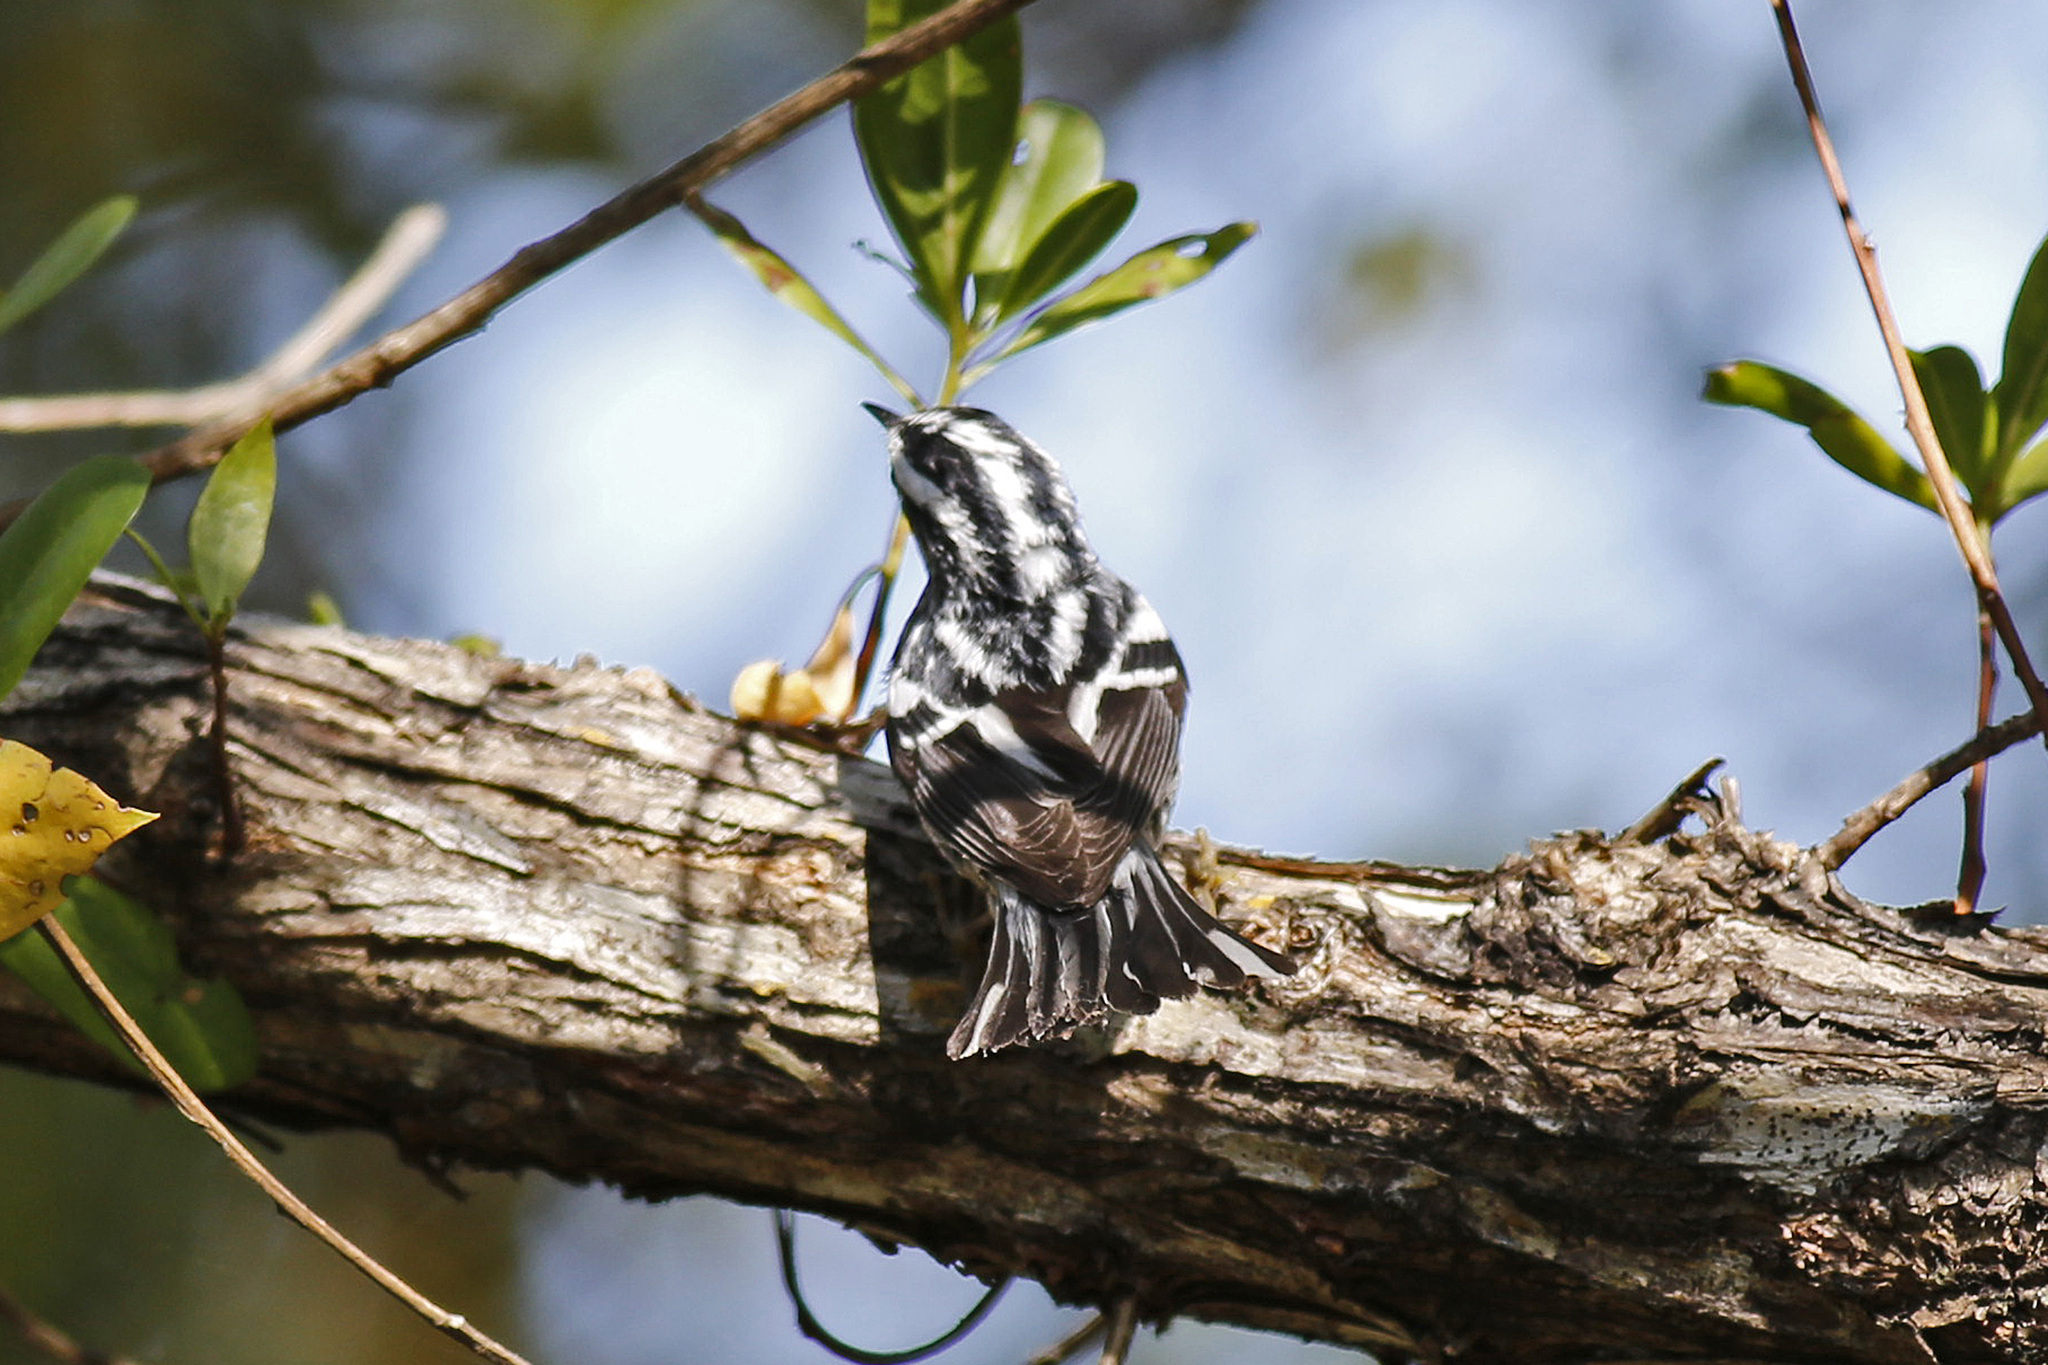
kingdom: Animalia
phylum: Chordata
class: Aves
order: Passeriformes
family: Parulidae
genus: Mniotilta
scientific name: Mniotilta varia
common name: Black-and-white warbler
